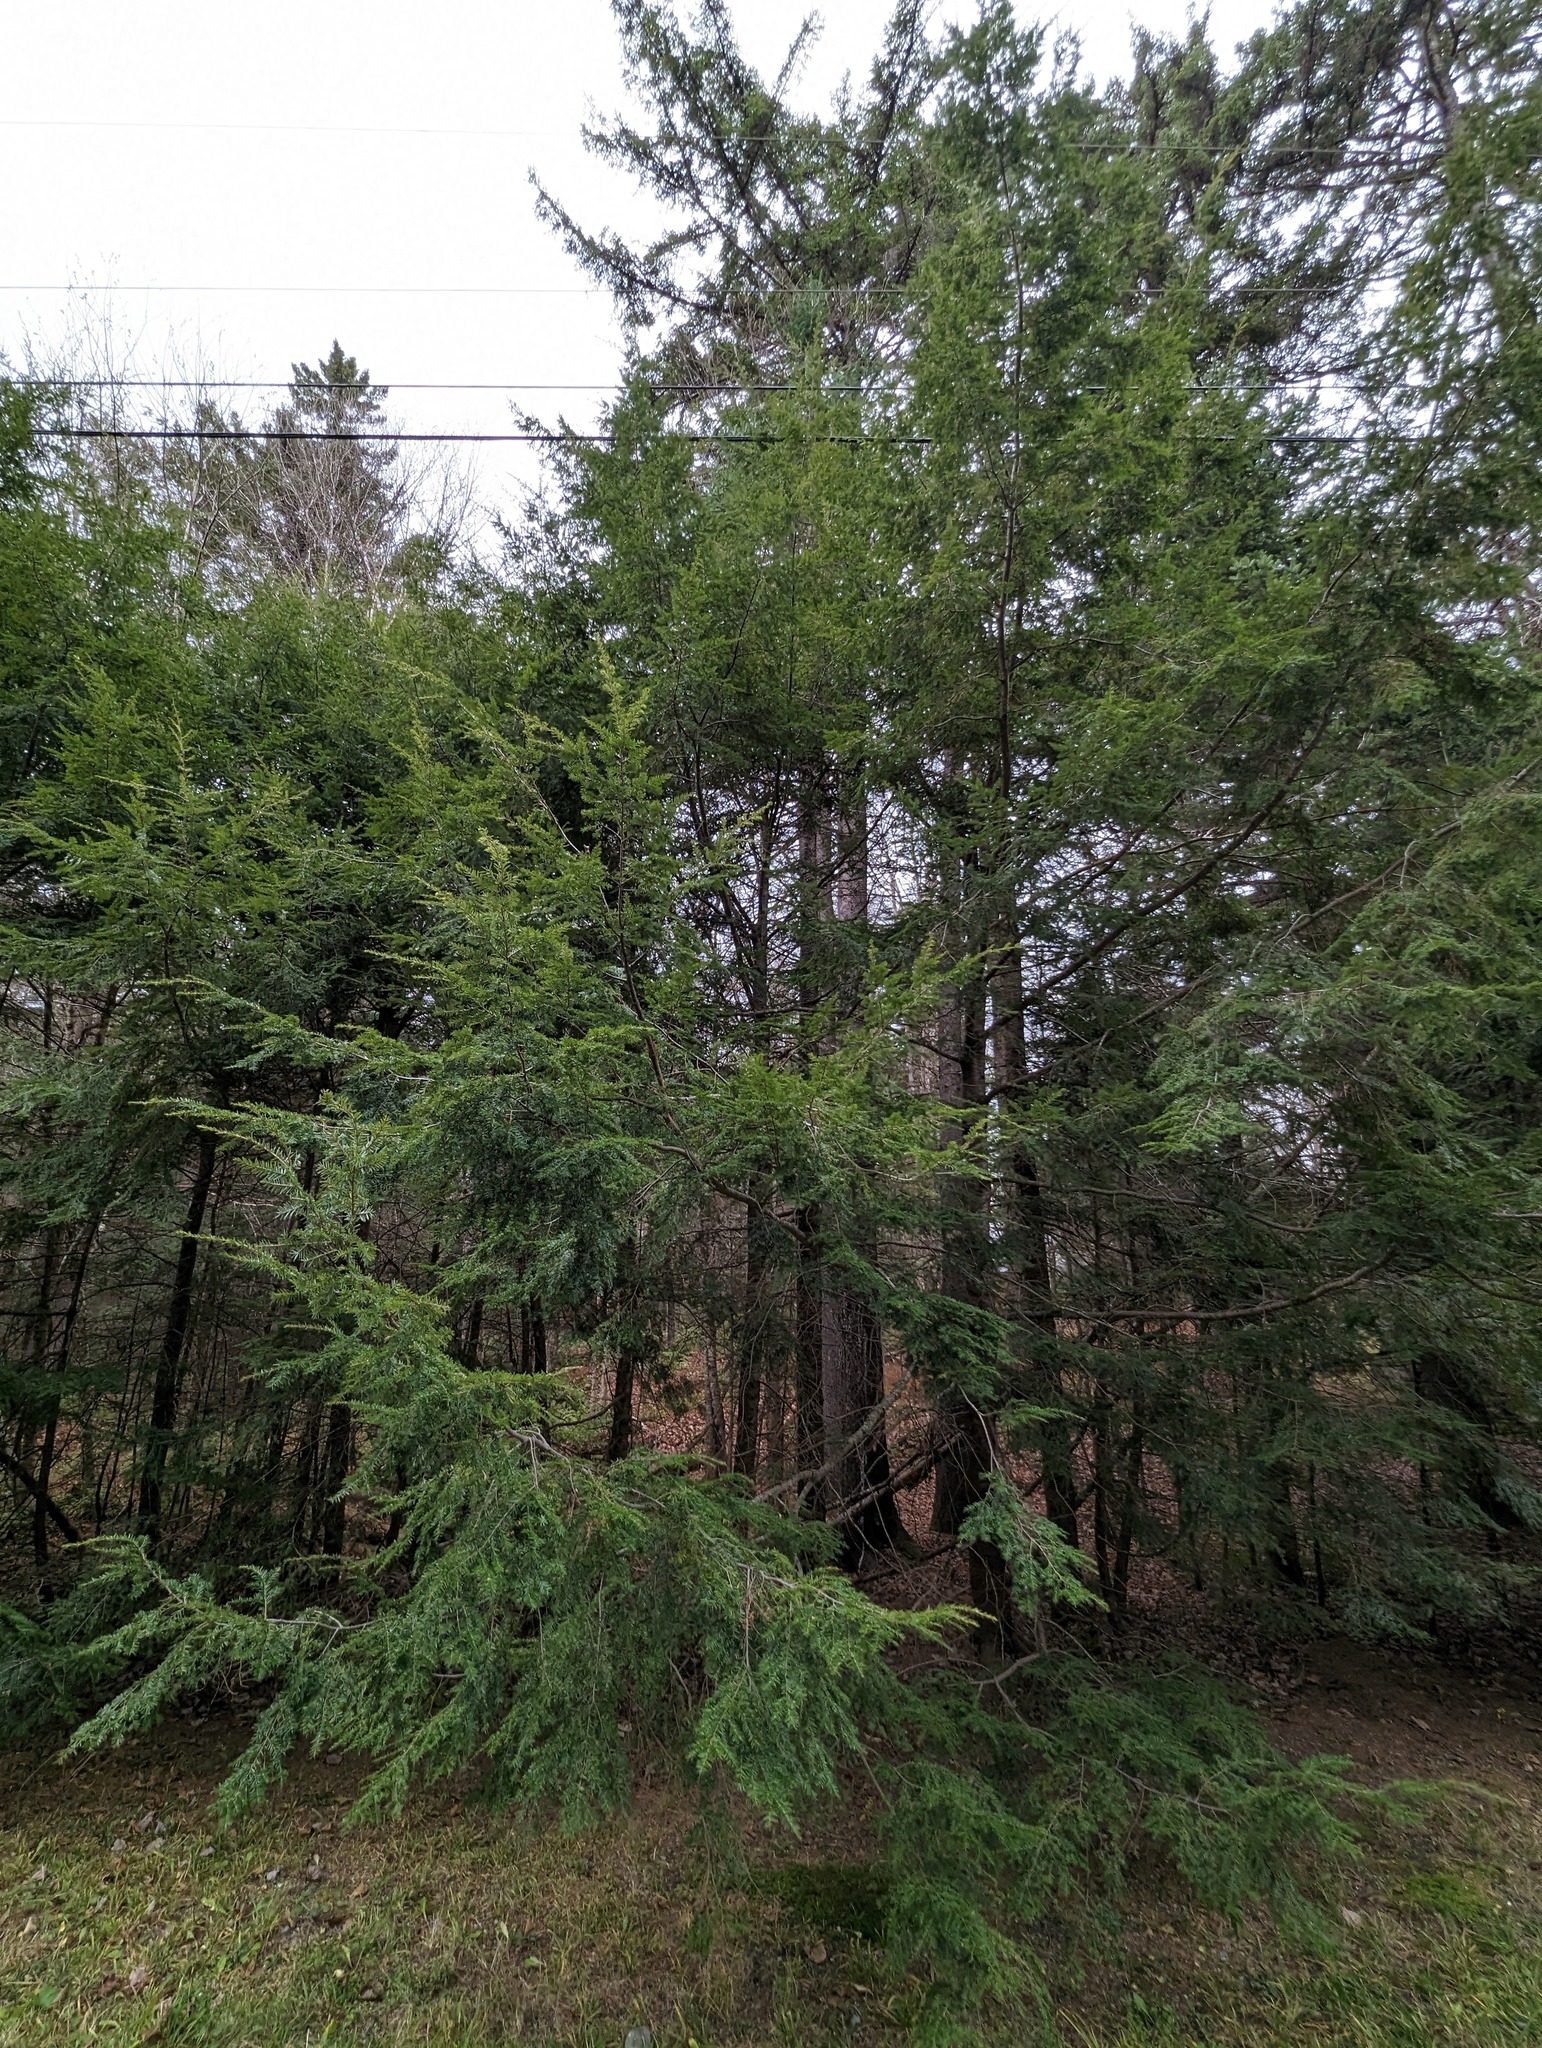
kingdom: Plantae
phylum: Tracheophyta
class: Pinopsida
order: Pinales
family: Pinaceae
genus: Tsuga
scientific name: Tsuga canadensis
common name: Eastern hemlock
